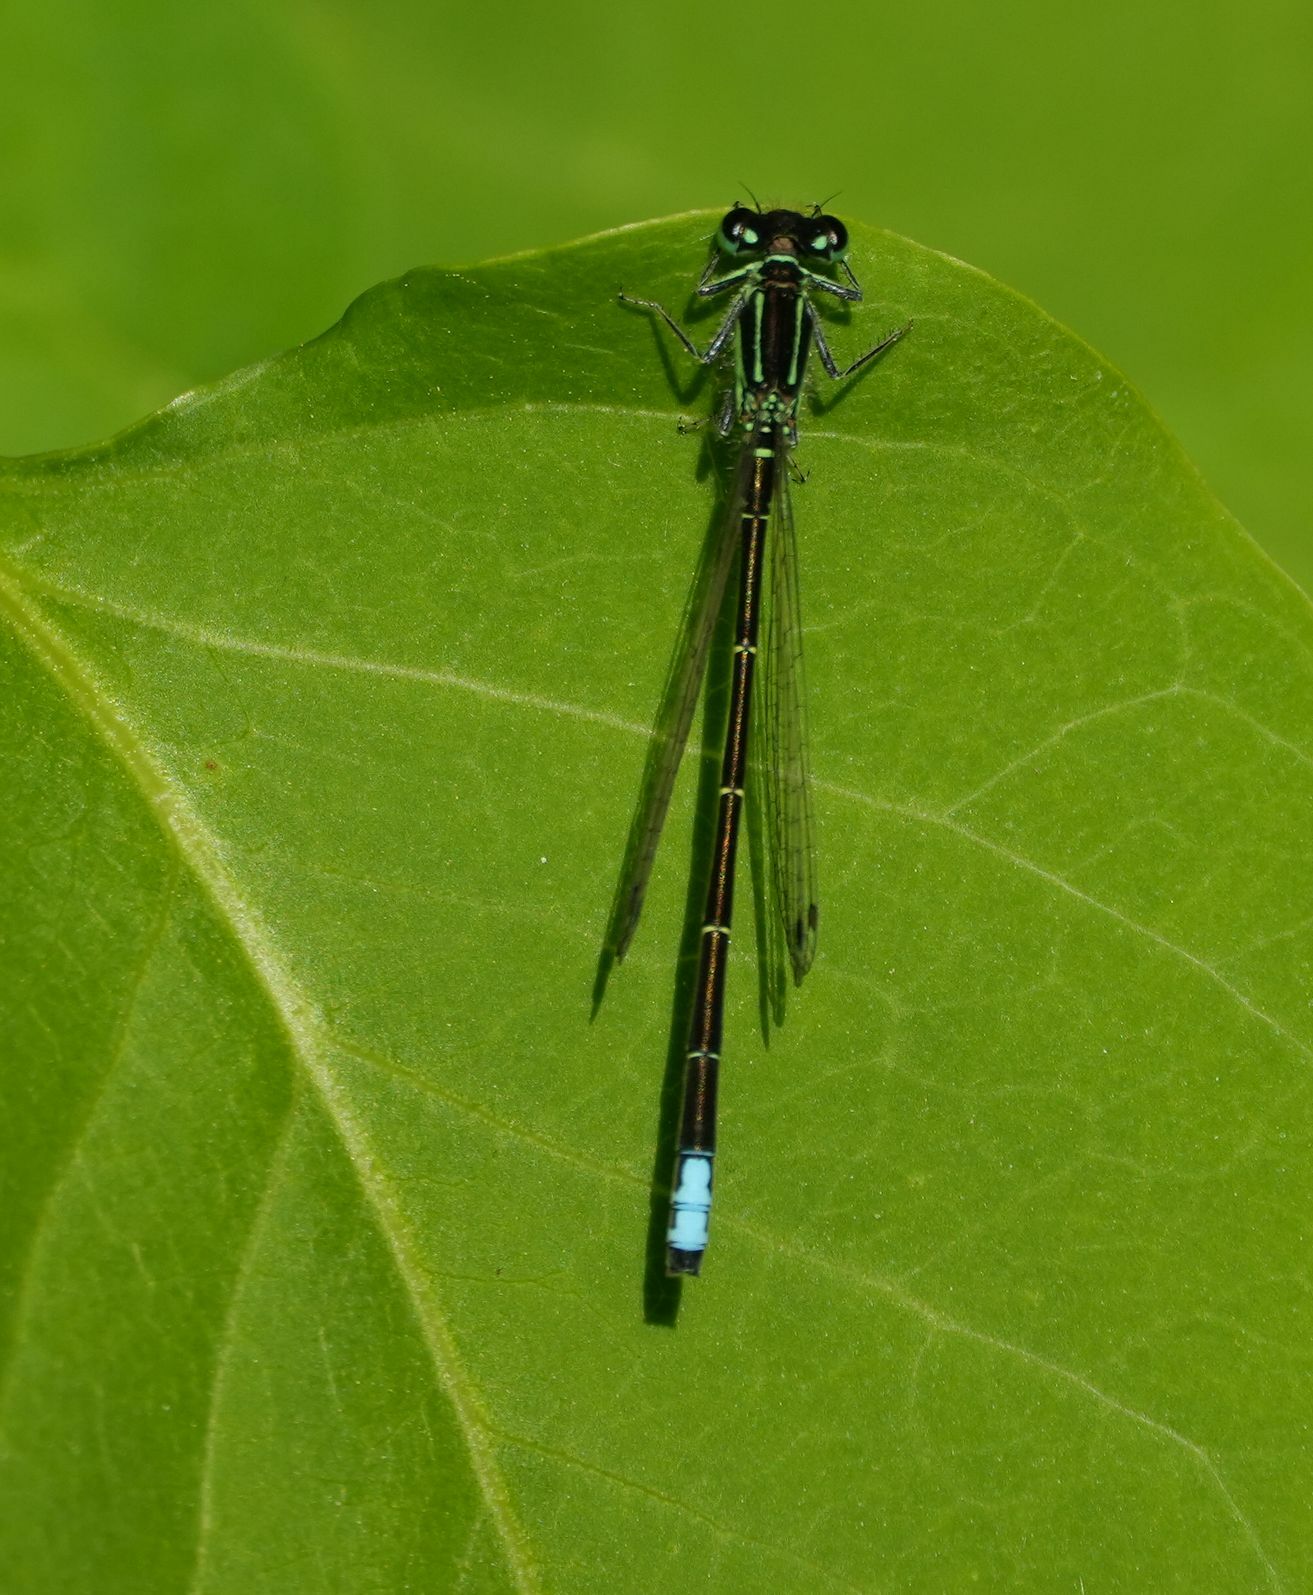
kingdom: Animalia
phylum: Arthropoda
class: Insecta
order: Odonata
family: Coenagrionidae
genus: Ischnura
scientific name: Ischnura verticalis
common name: Eastern forktail
